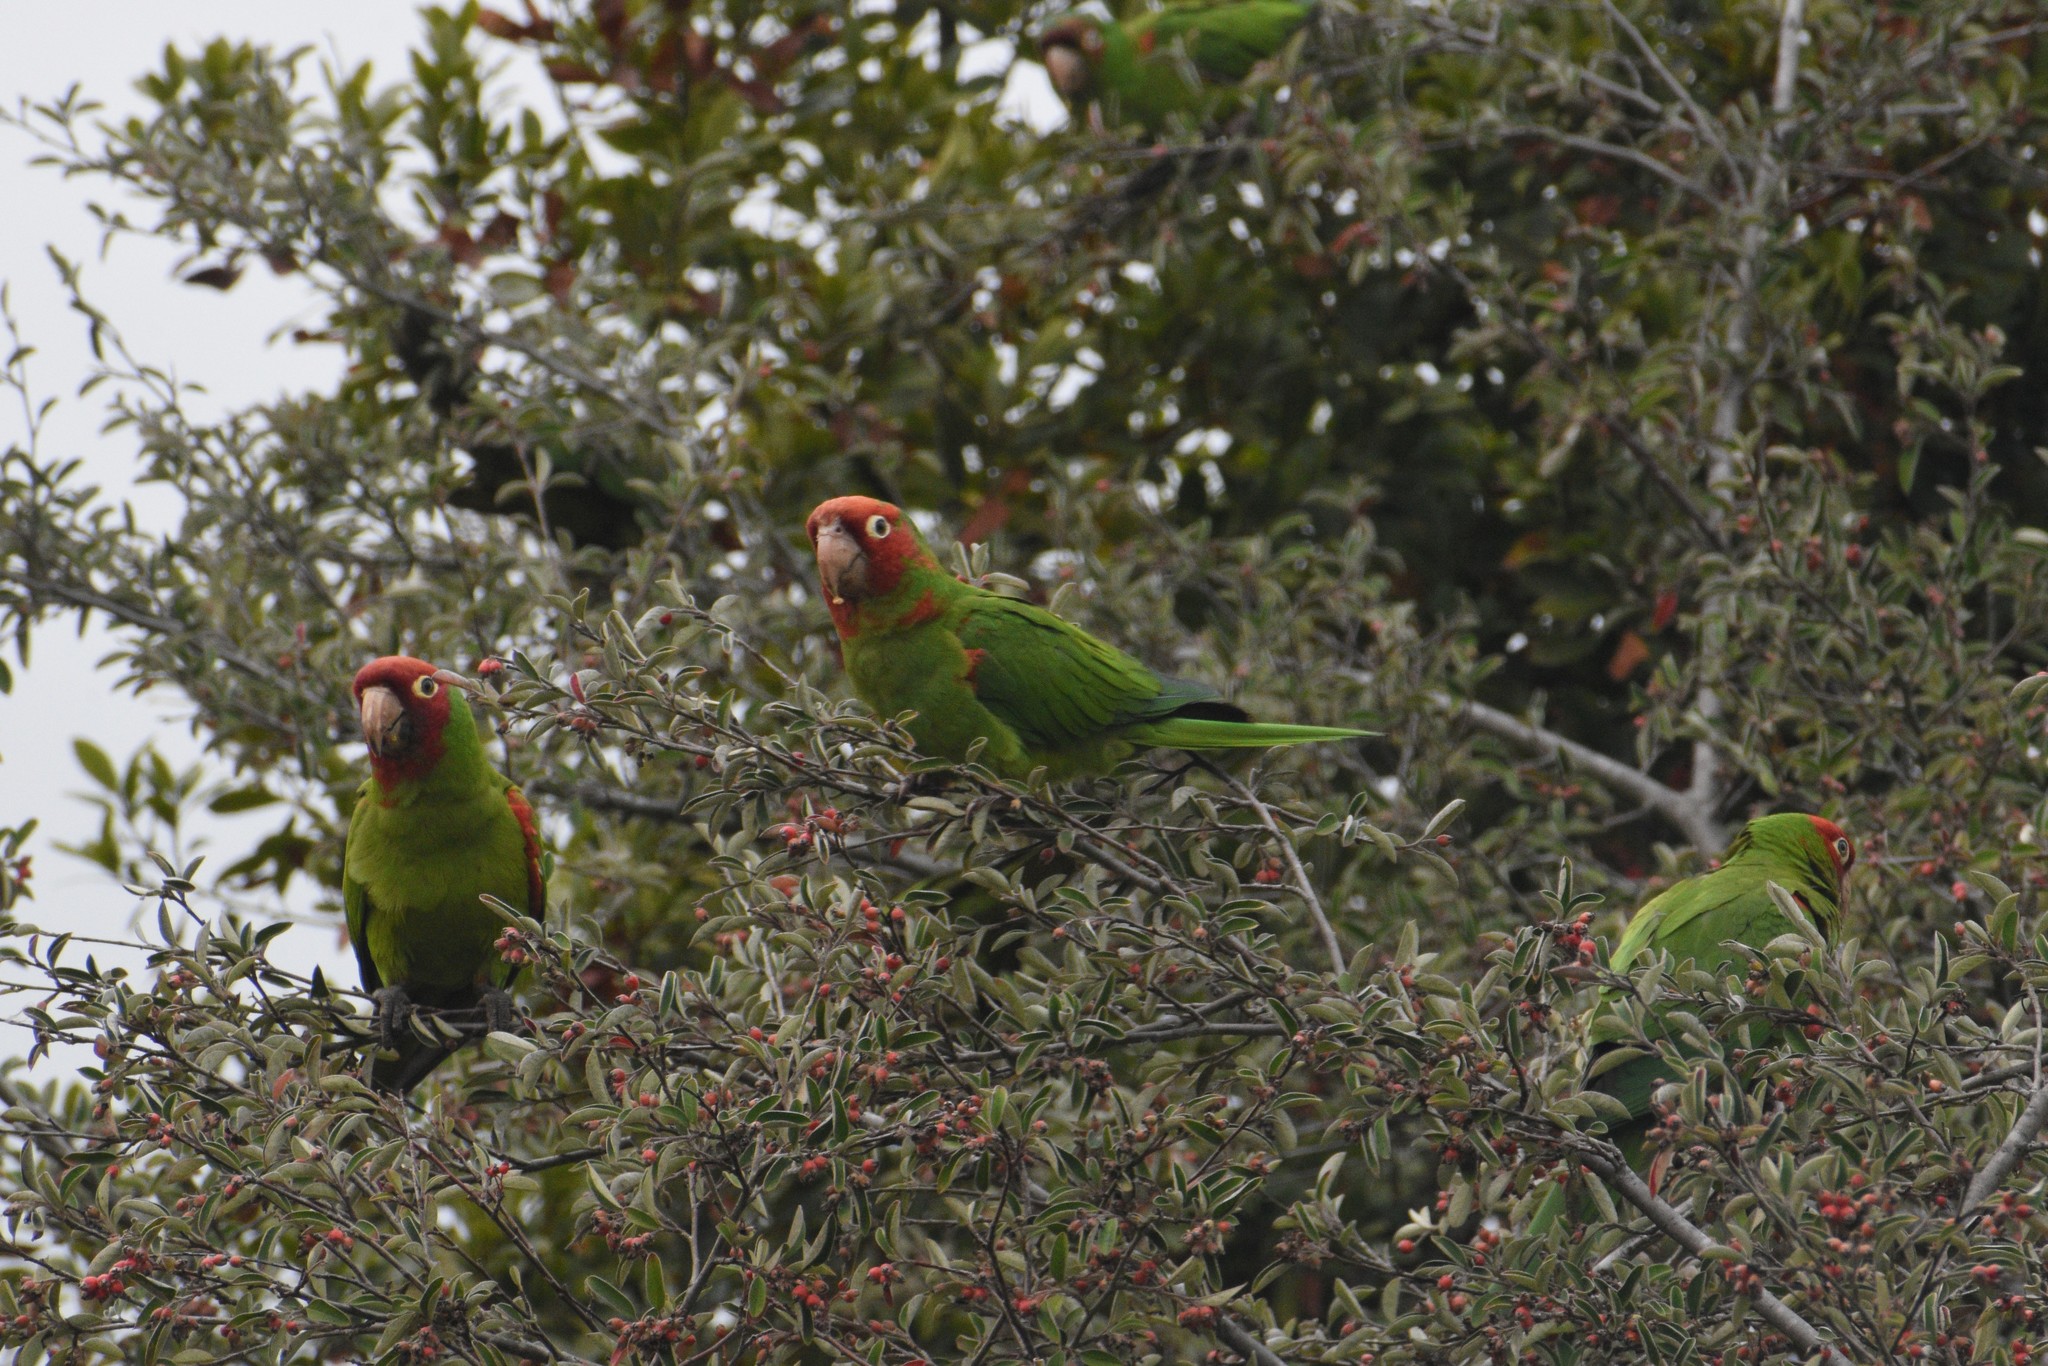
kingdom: Animalia
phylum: Chordata
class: Aves
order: Psittaciformes
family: Psittacidae
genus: Aratinga
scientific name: Aratinga erythrogenys
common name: Red-masked parakeet
